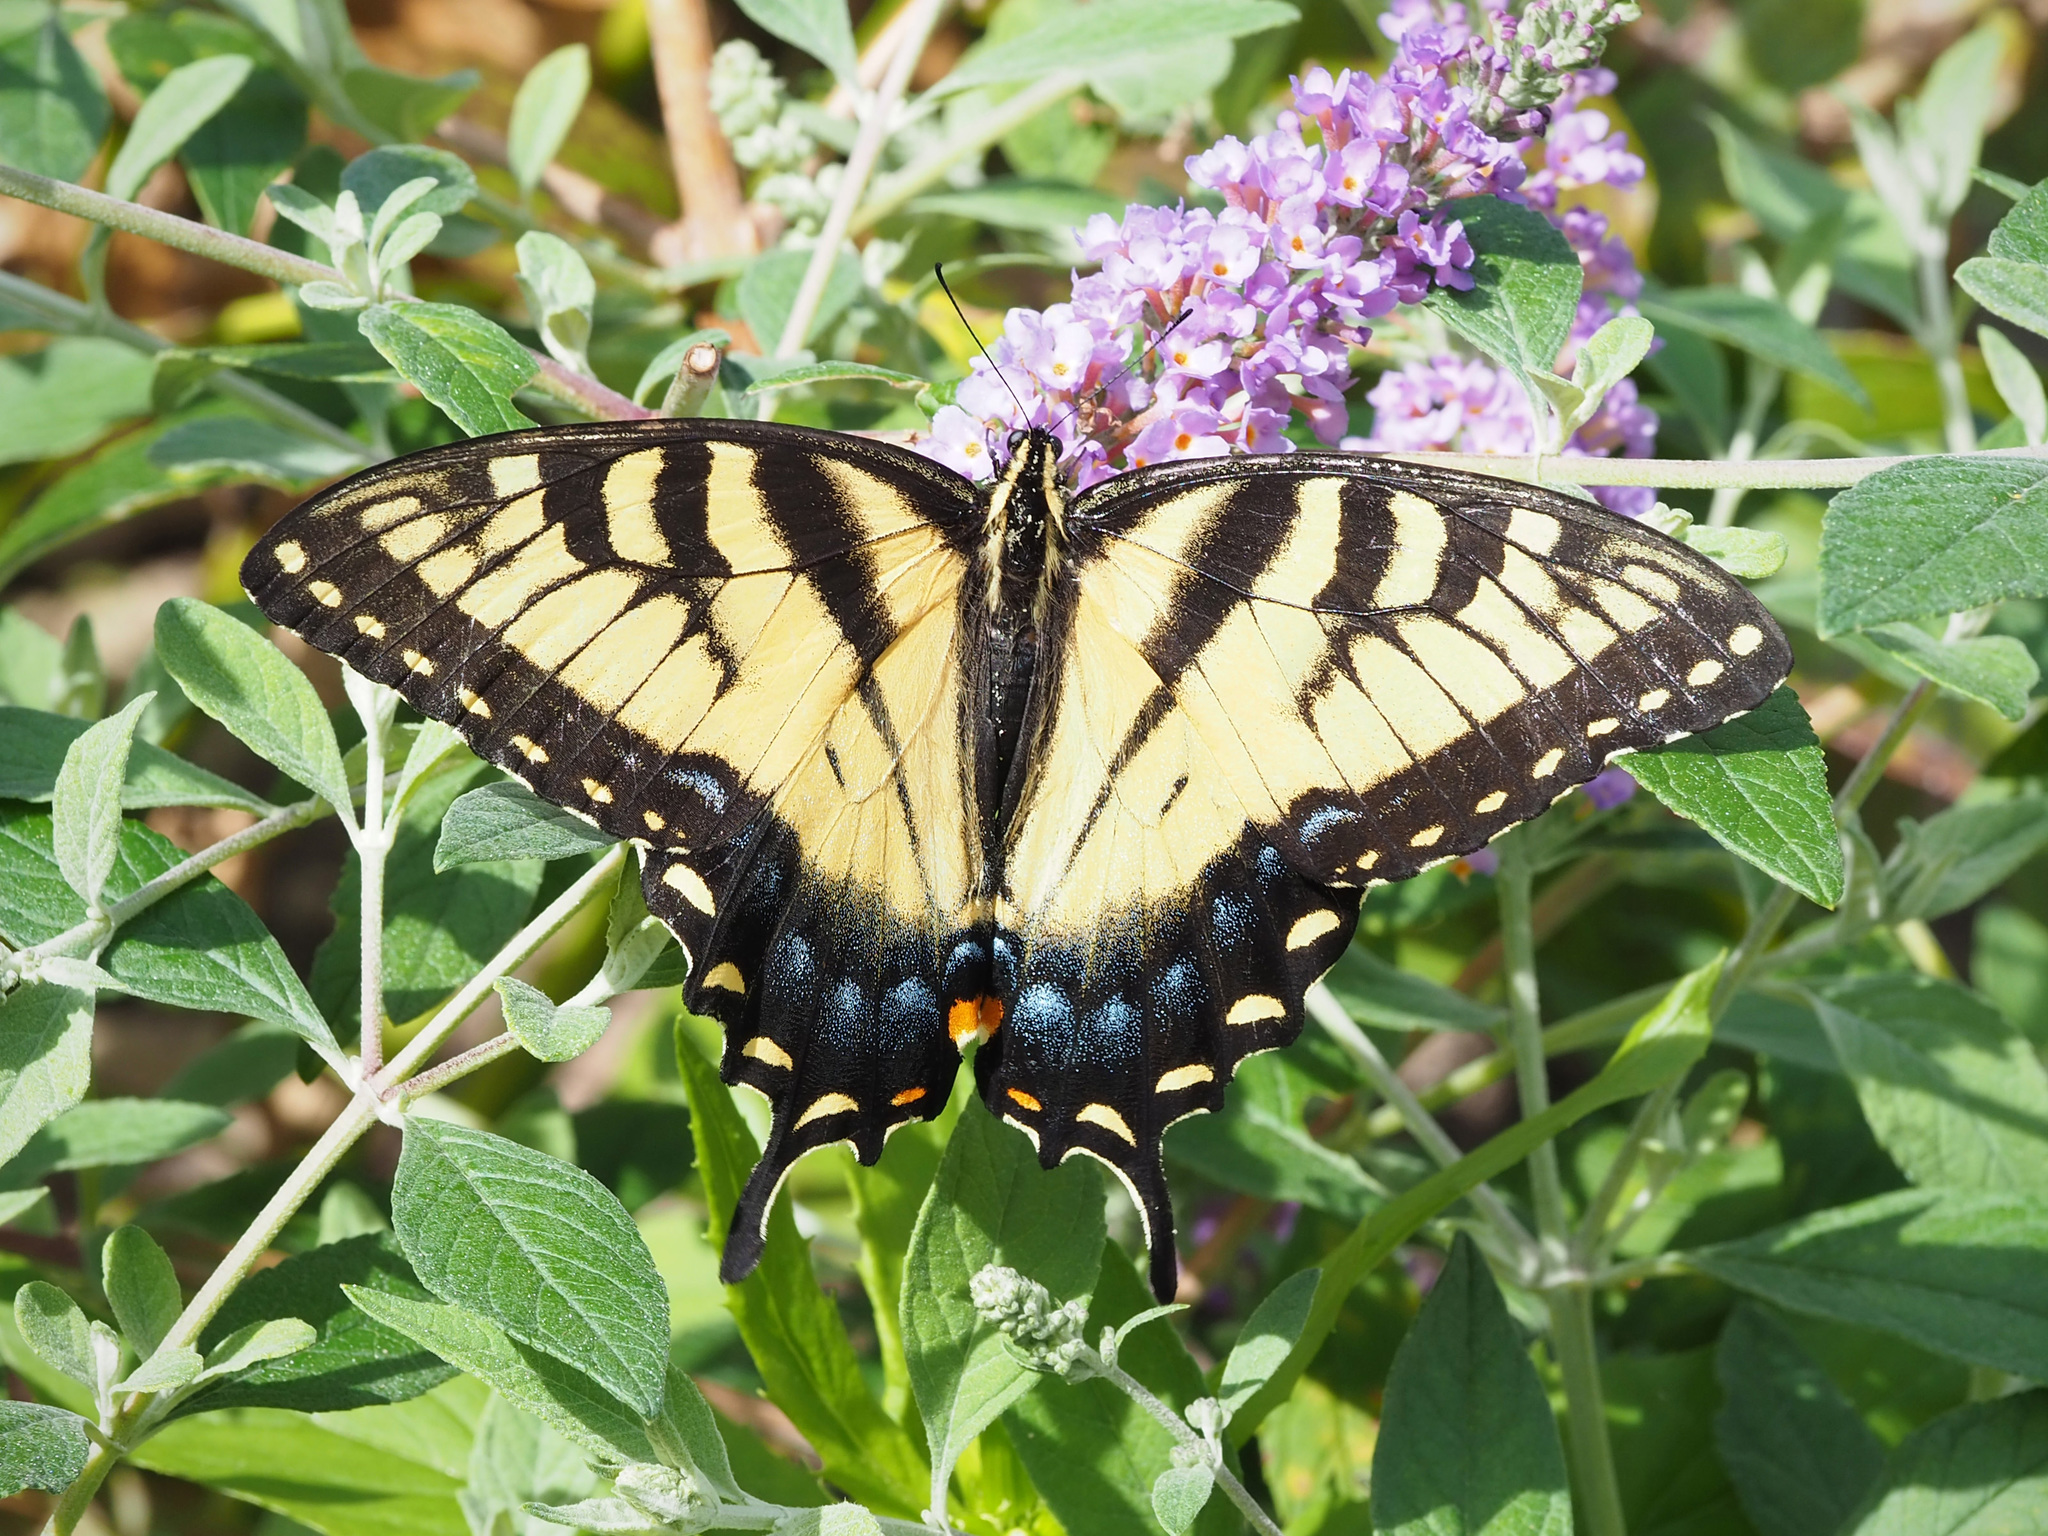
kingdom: Animalia
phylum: Arthropoda
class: Insecta
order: Lepidoptera
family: Papilionidae
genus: Papilio
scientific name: Papilio glaucus
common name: Tiger swallowtail
